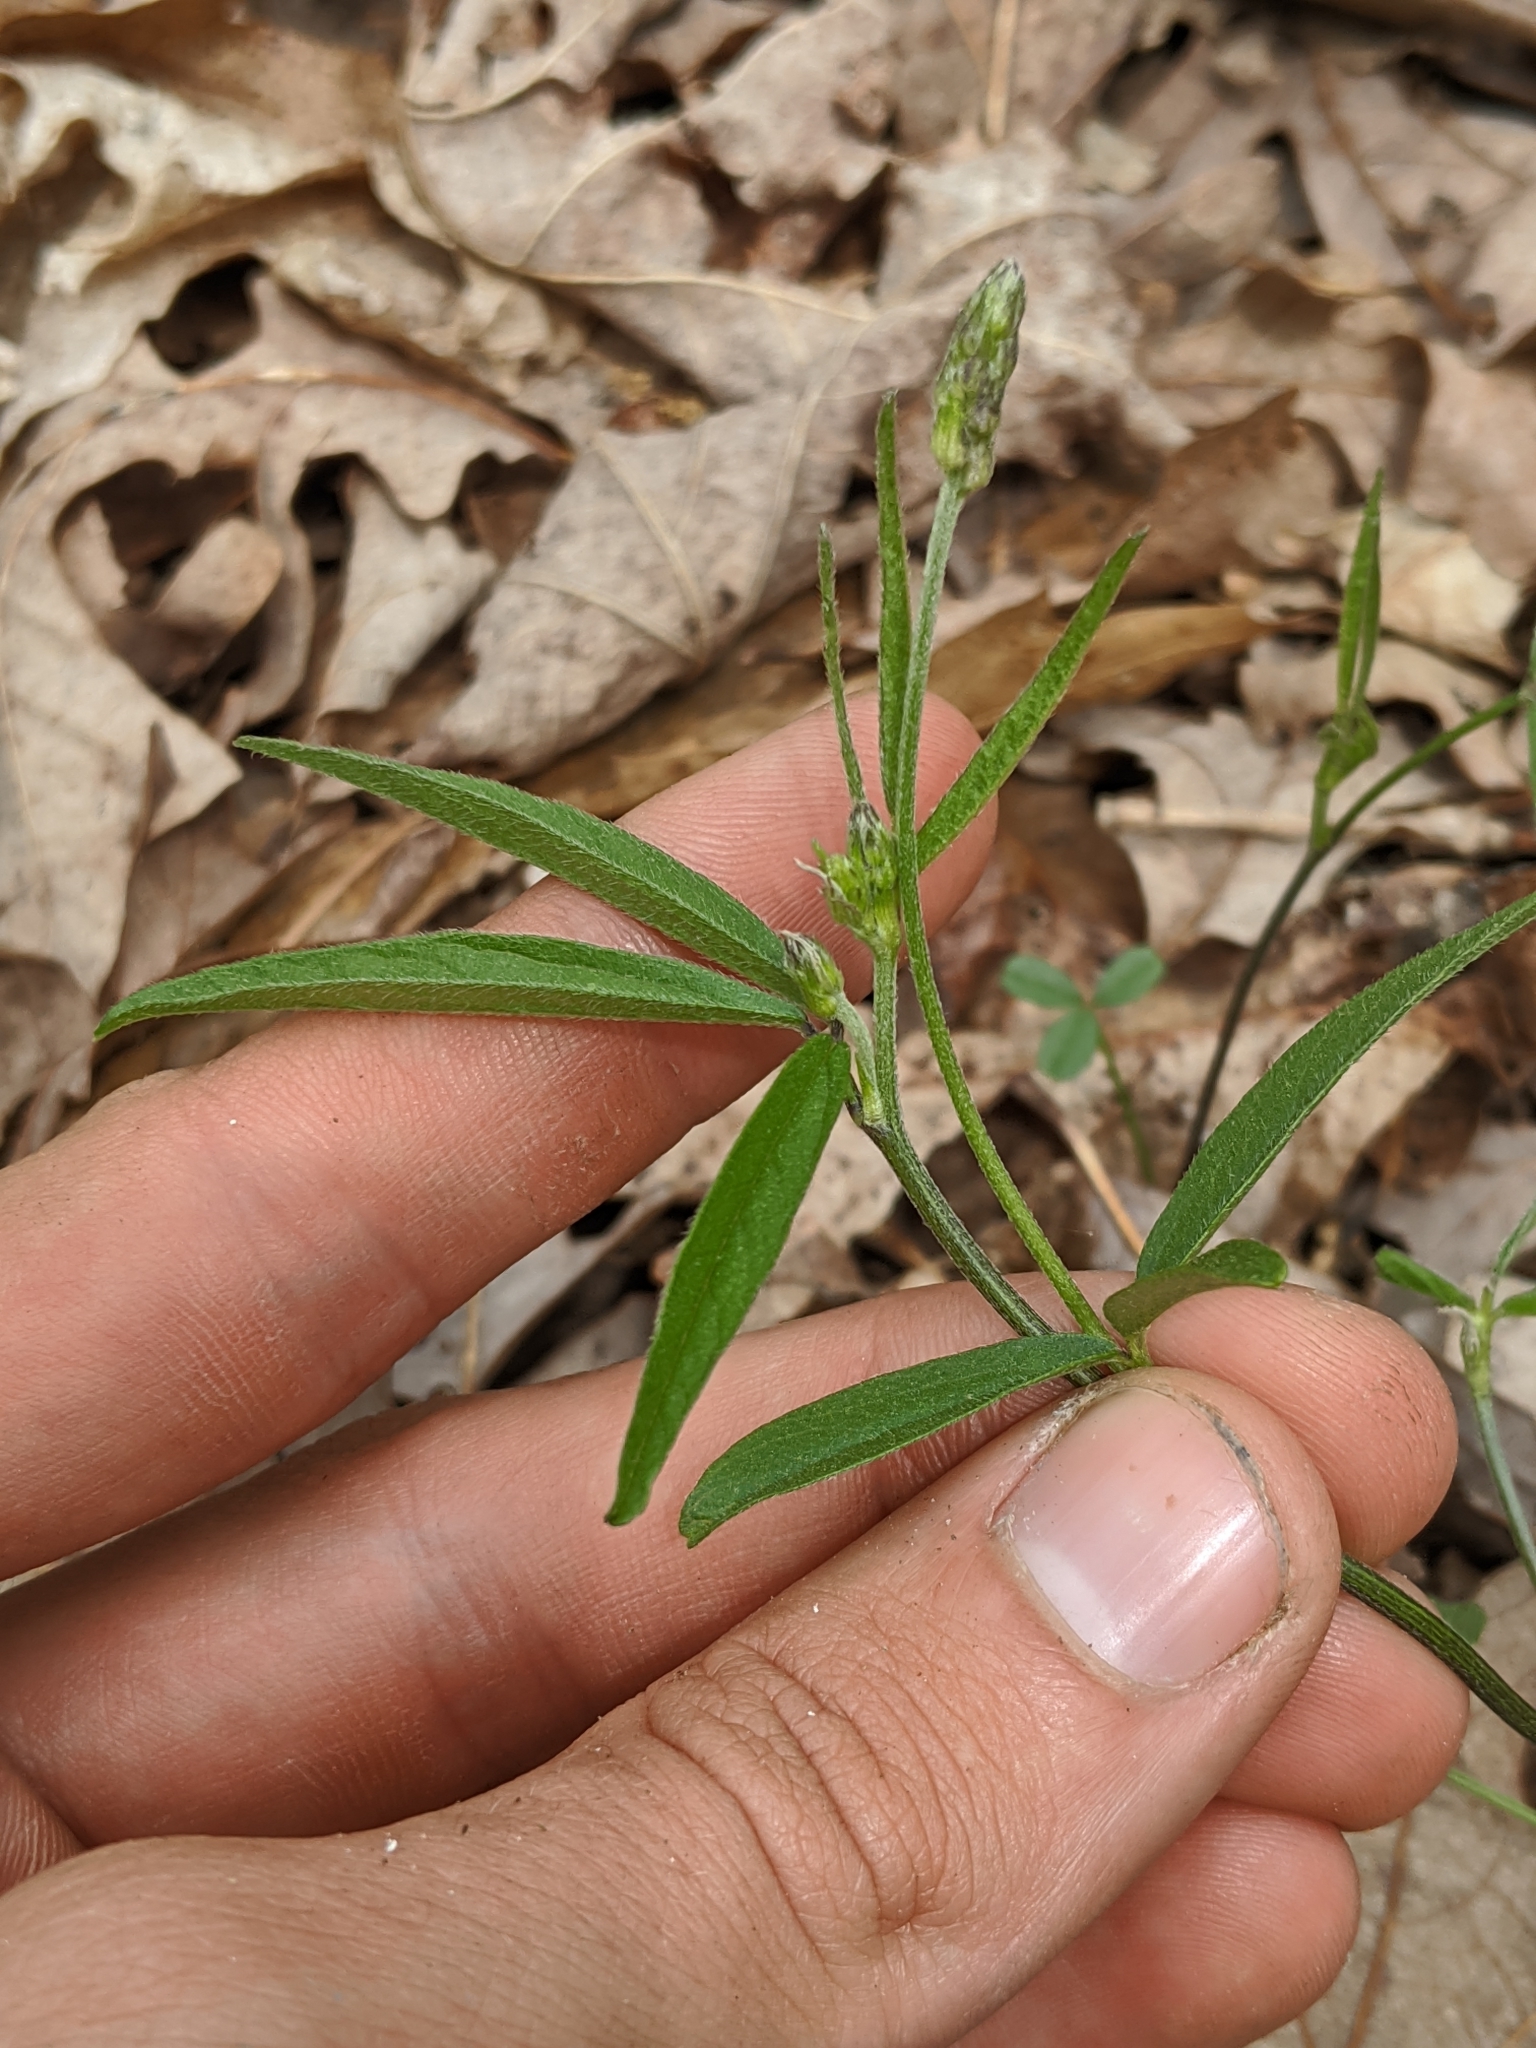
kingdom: Plantae
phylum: Tracheophyta
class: Magnoliopsida
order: Fabales
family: Fabaceae
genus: Orbexilum
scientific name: Orbexilum pedunculatum
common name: Sampson's snakeroot
